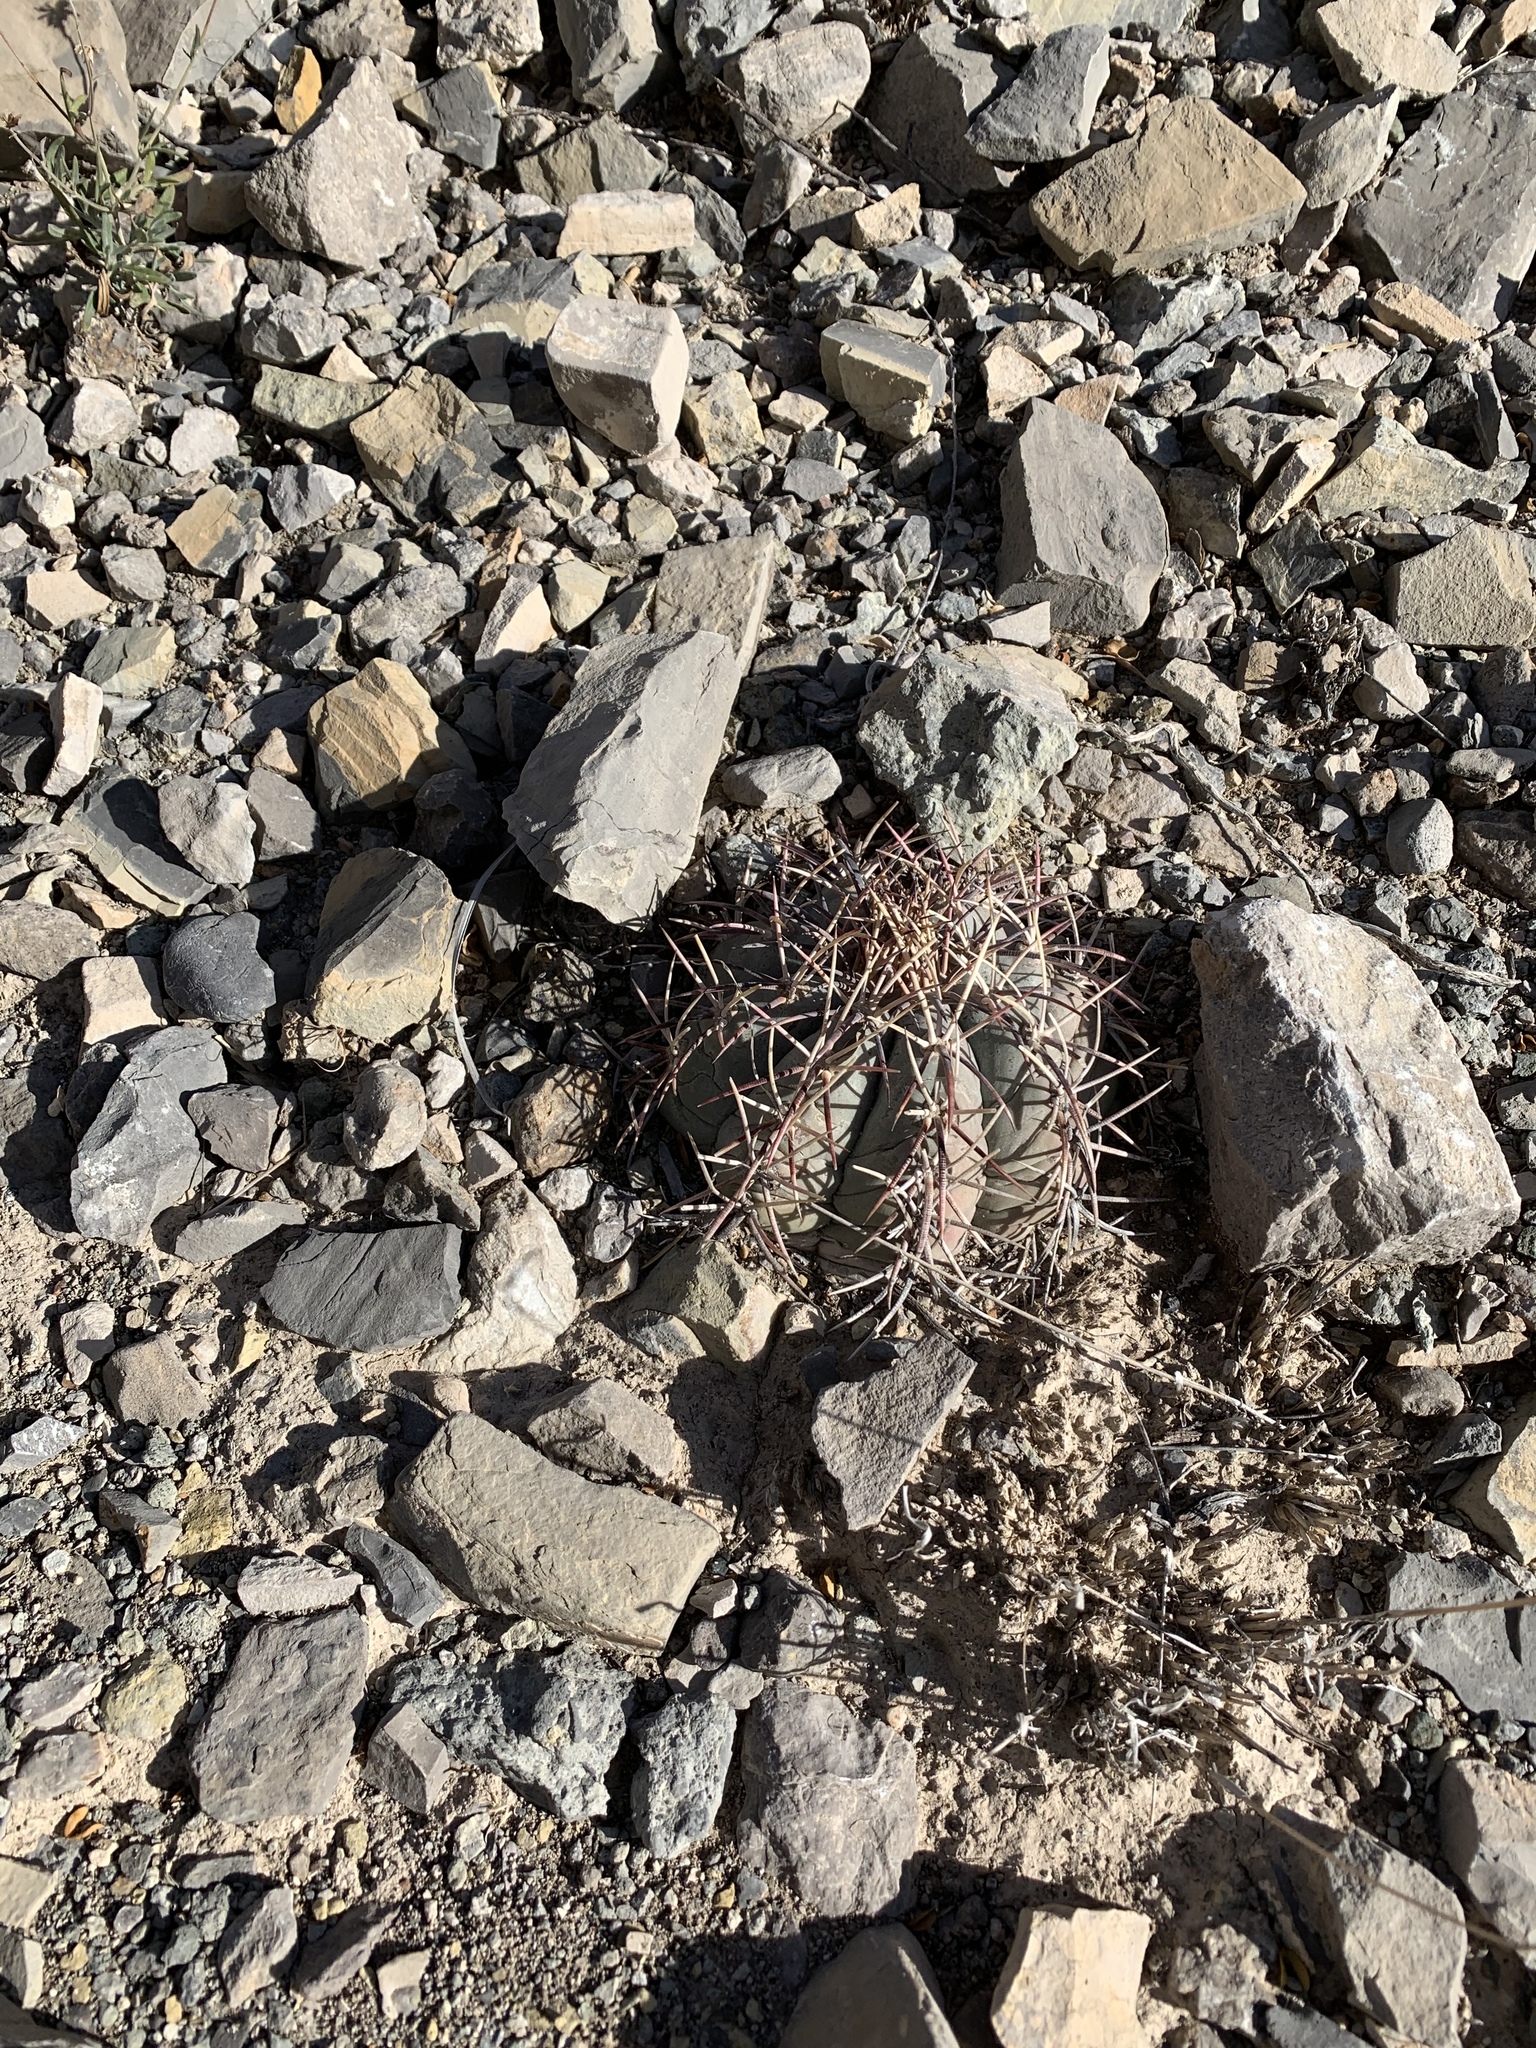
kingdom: Plantae
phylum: Tracheophyta
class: Magnoliopsida
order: Caryophyllales
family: Cactaceae
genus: Echinocactus
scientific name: Echinocactus horizonthalonius
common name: Devilshead
